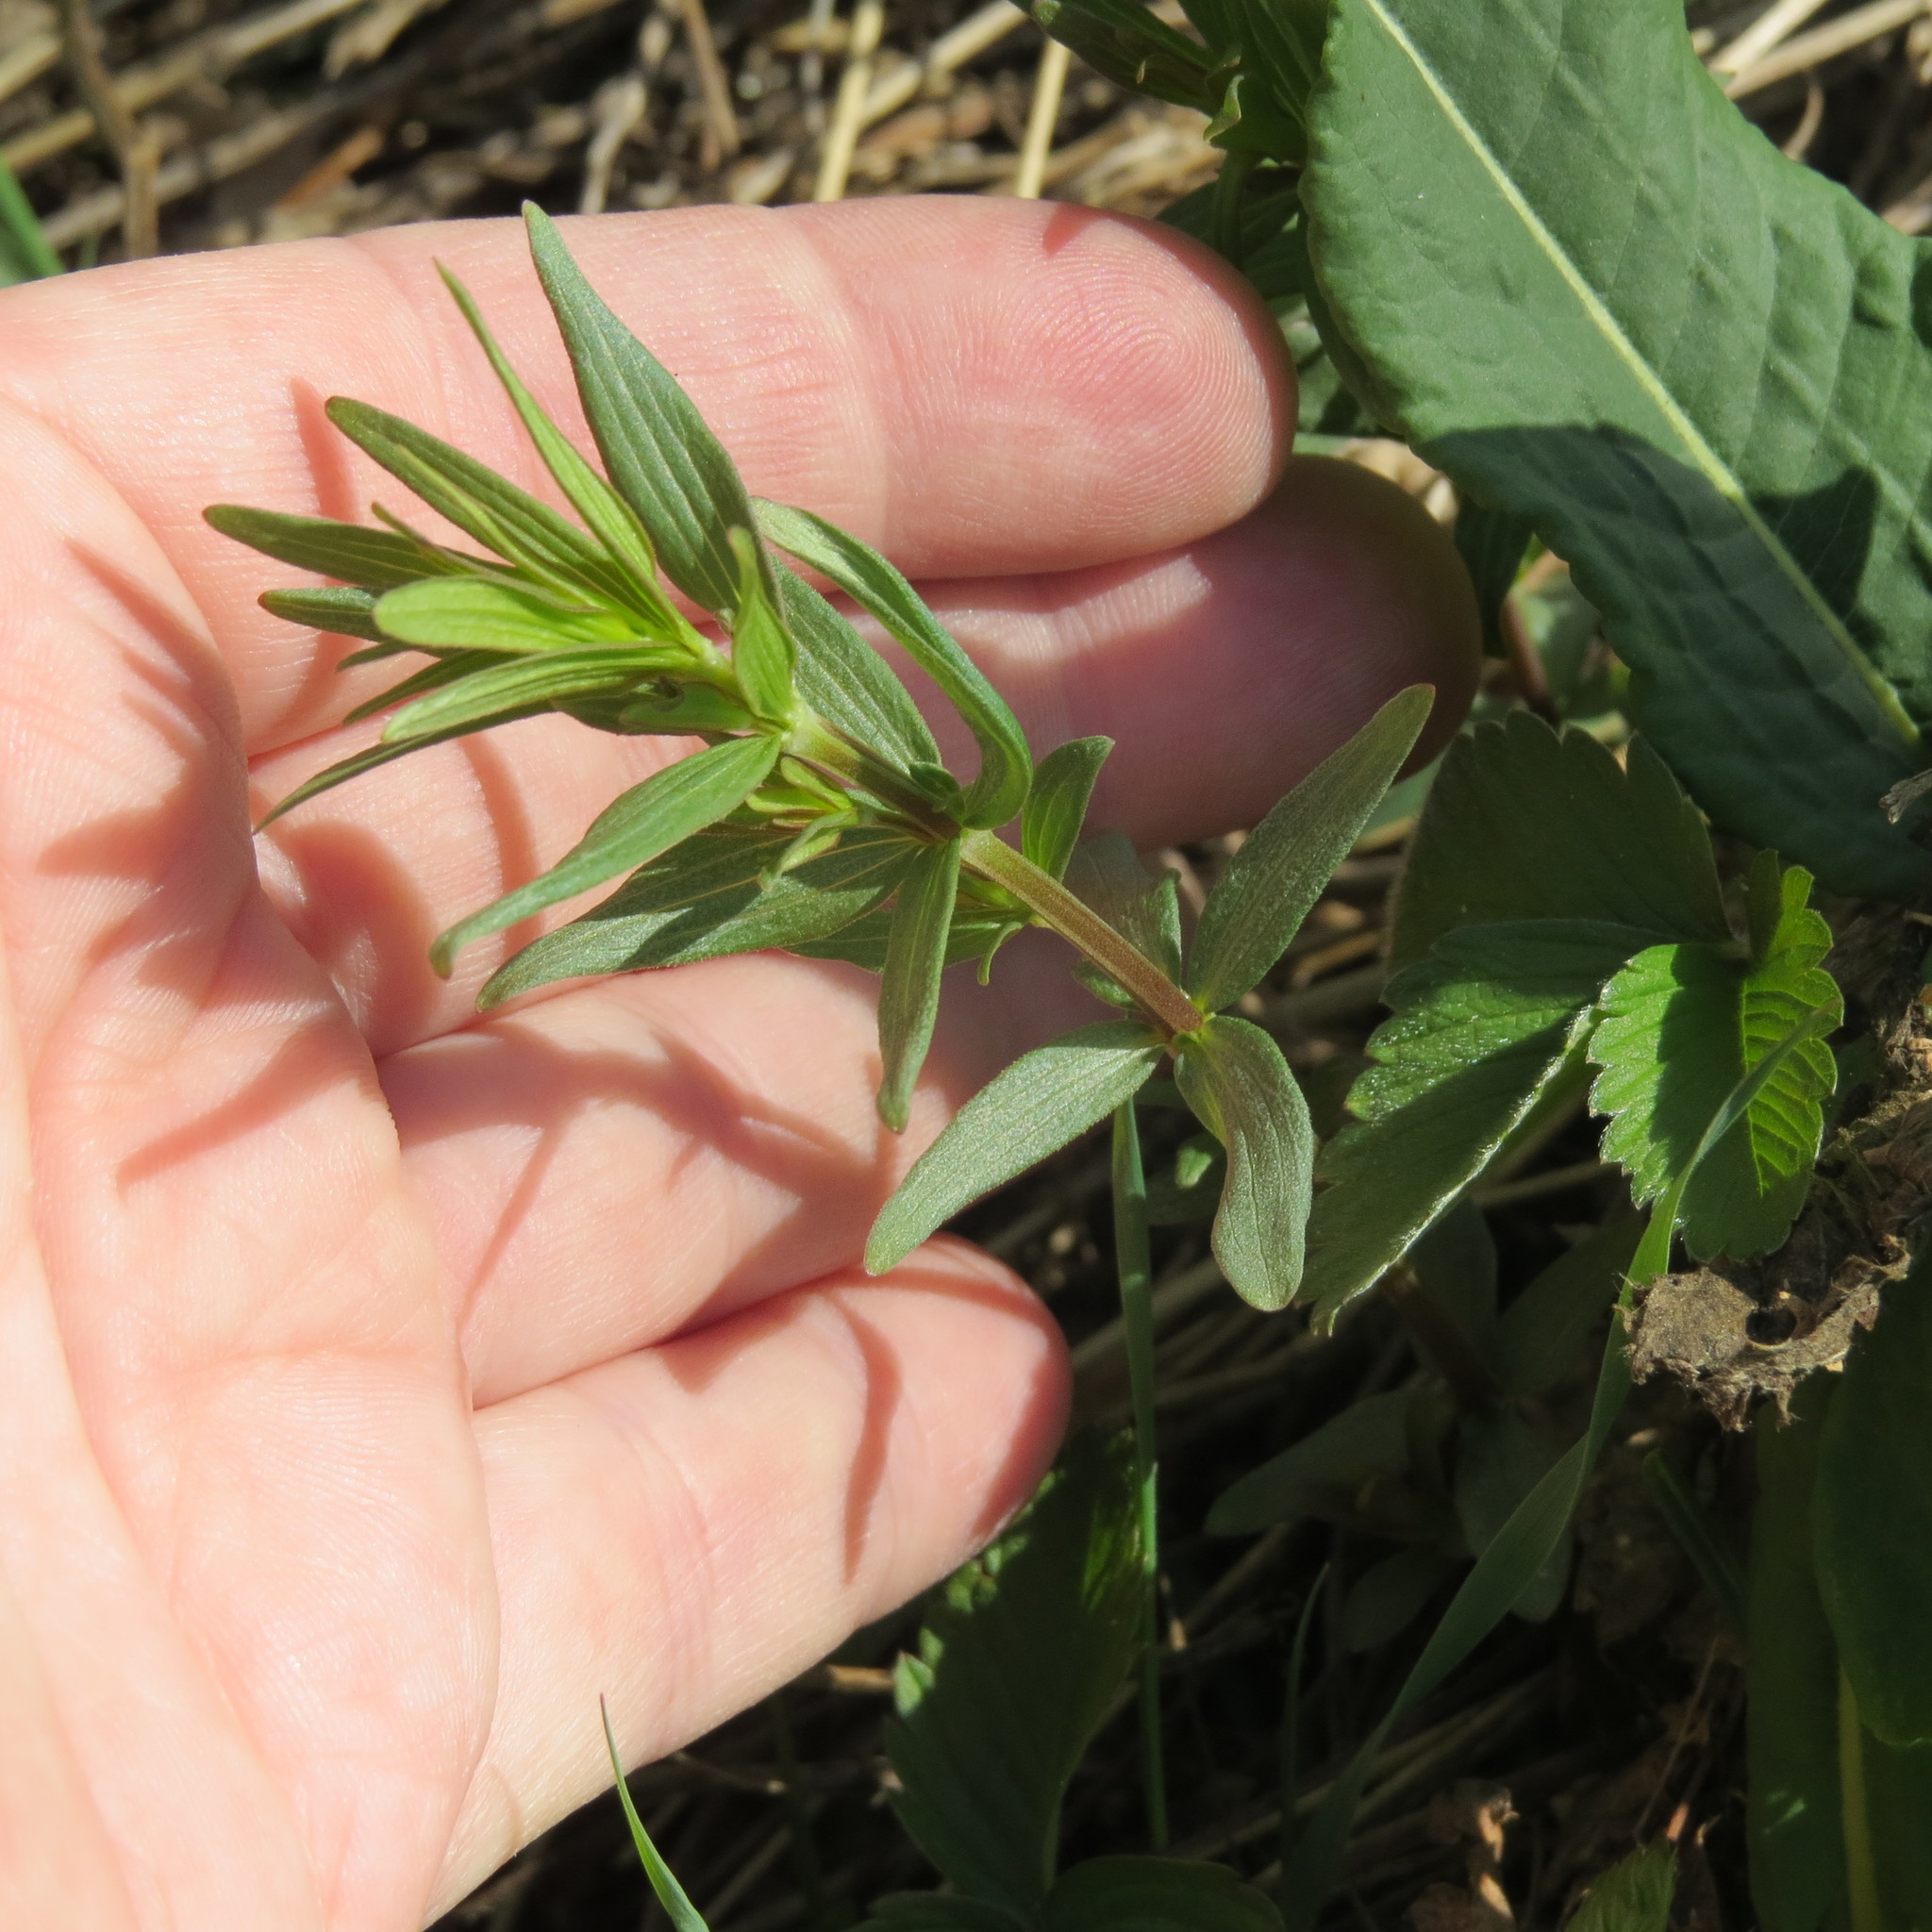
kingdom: Plantae
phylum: Tracheophyta
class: Magnoliopsida
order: Gentianales
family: Rubiaceae
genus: Galium
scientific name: Galium boreale
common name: Northern bedstraw
